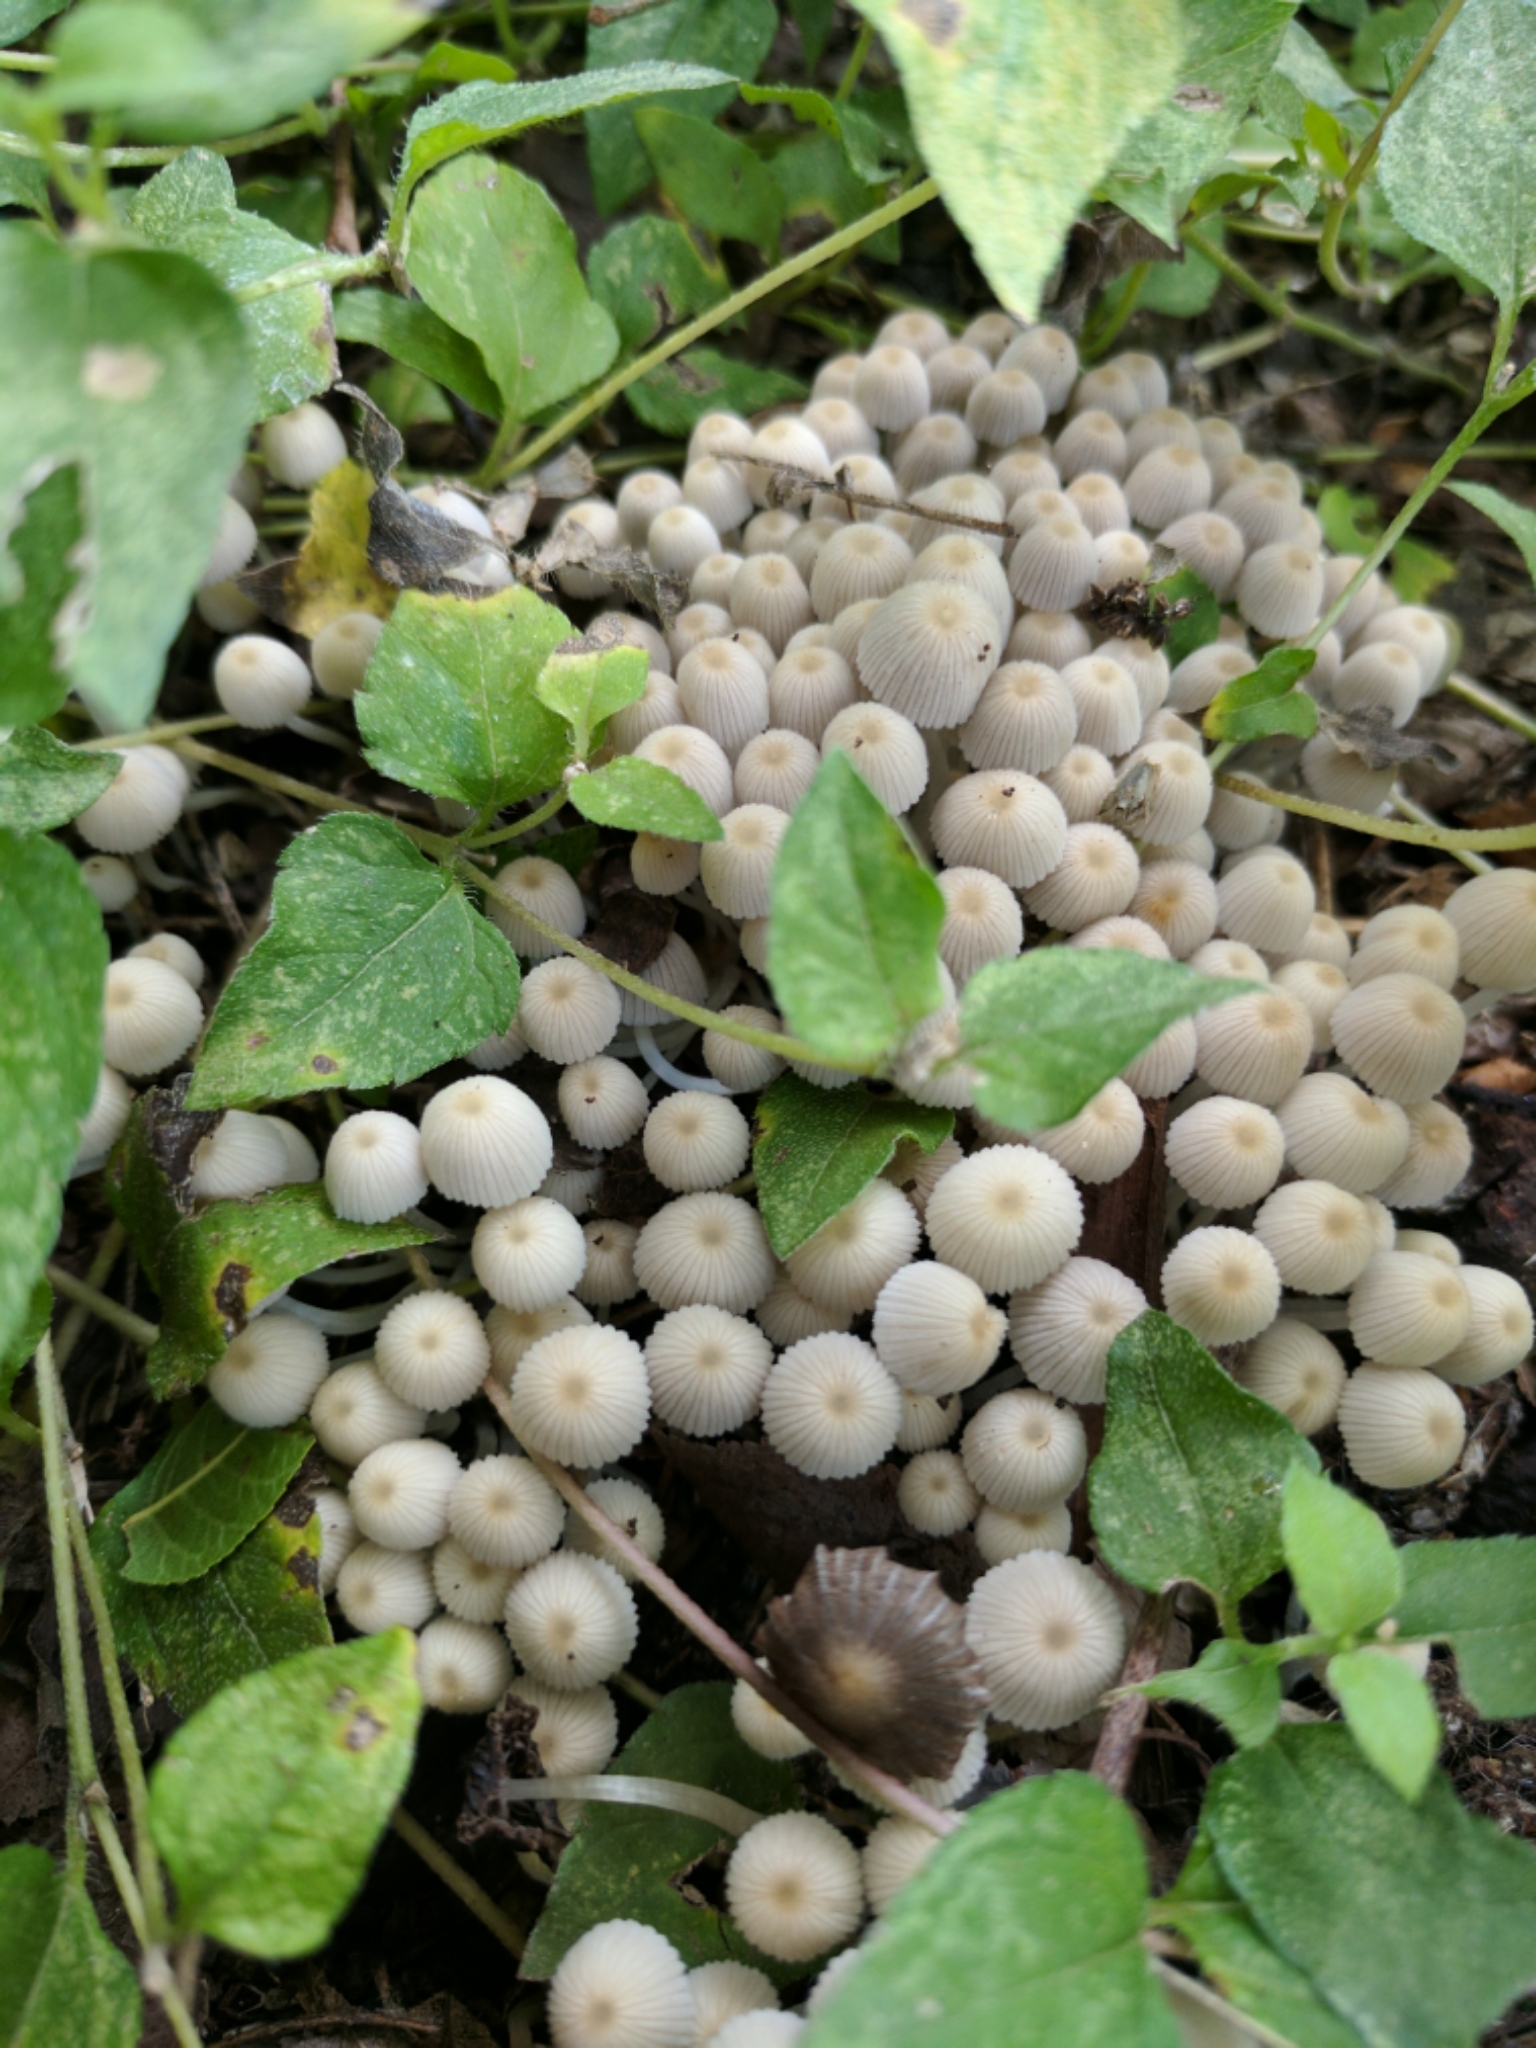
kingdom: Fungi
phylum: Basidiomycota
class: Agaricomycetes
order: Agaricales
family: Psathyrellaceae
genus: Coprinellus
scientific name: Coprinellus disseminatus
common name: Fairies' bonnets
